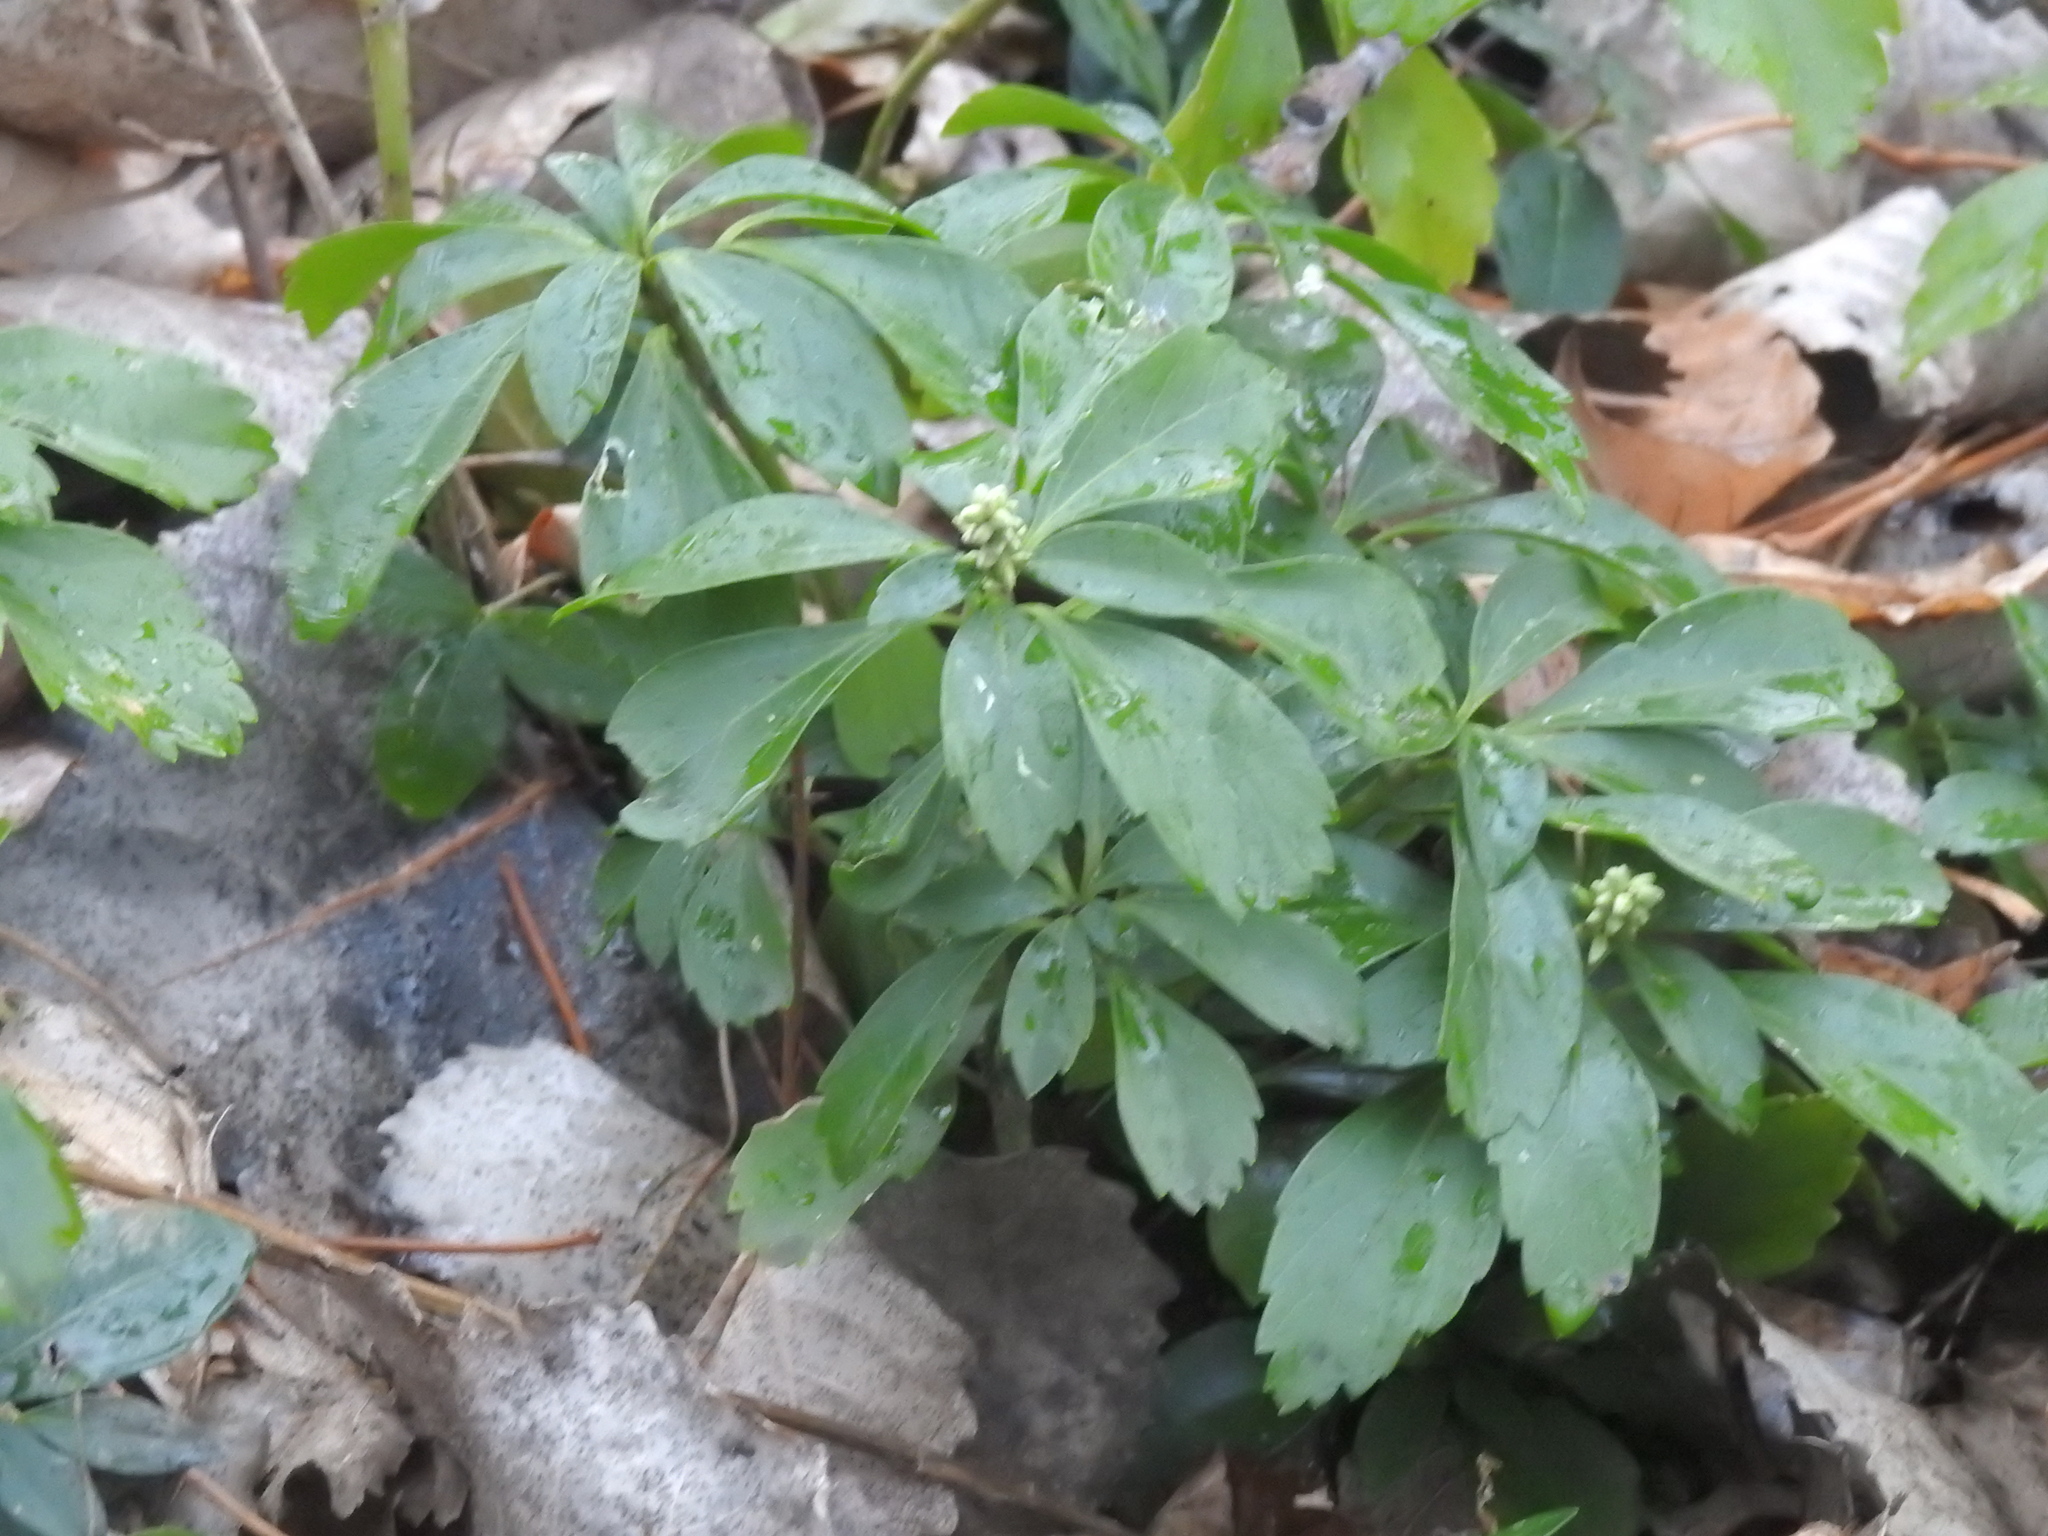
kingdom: Plantae
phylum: Tracheophyta
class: Magnoliopsida
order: Buxales
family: Buxaceae
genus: Pachysandra
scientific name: Pachysandra terminalis
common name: Japanese pachysandra
